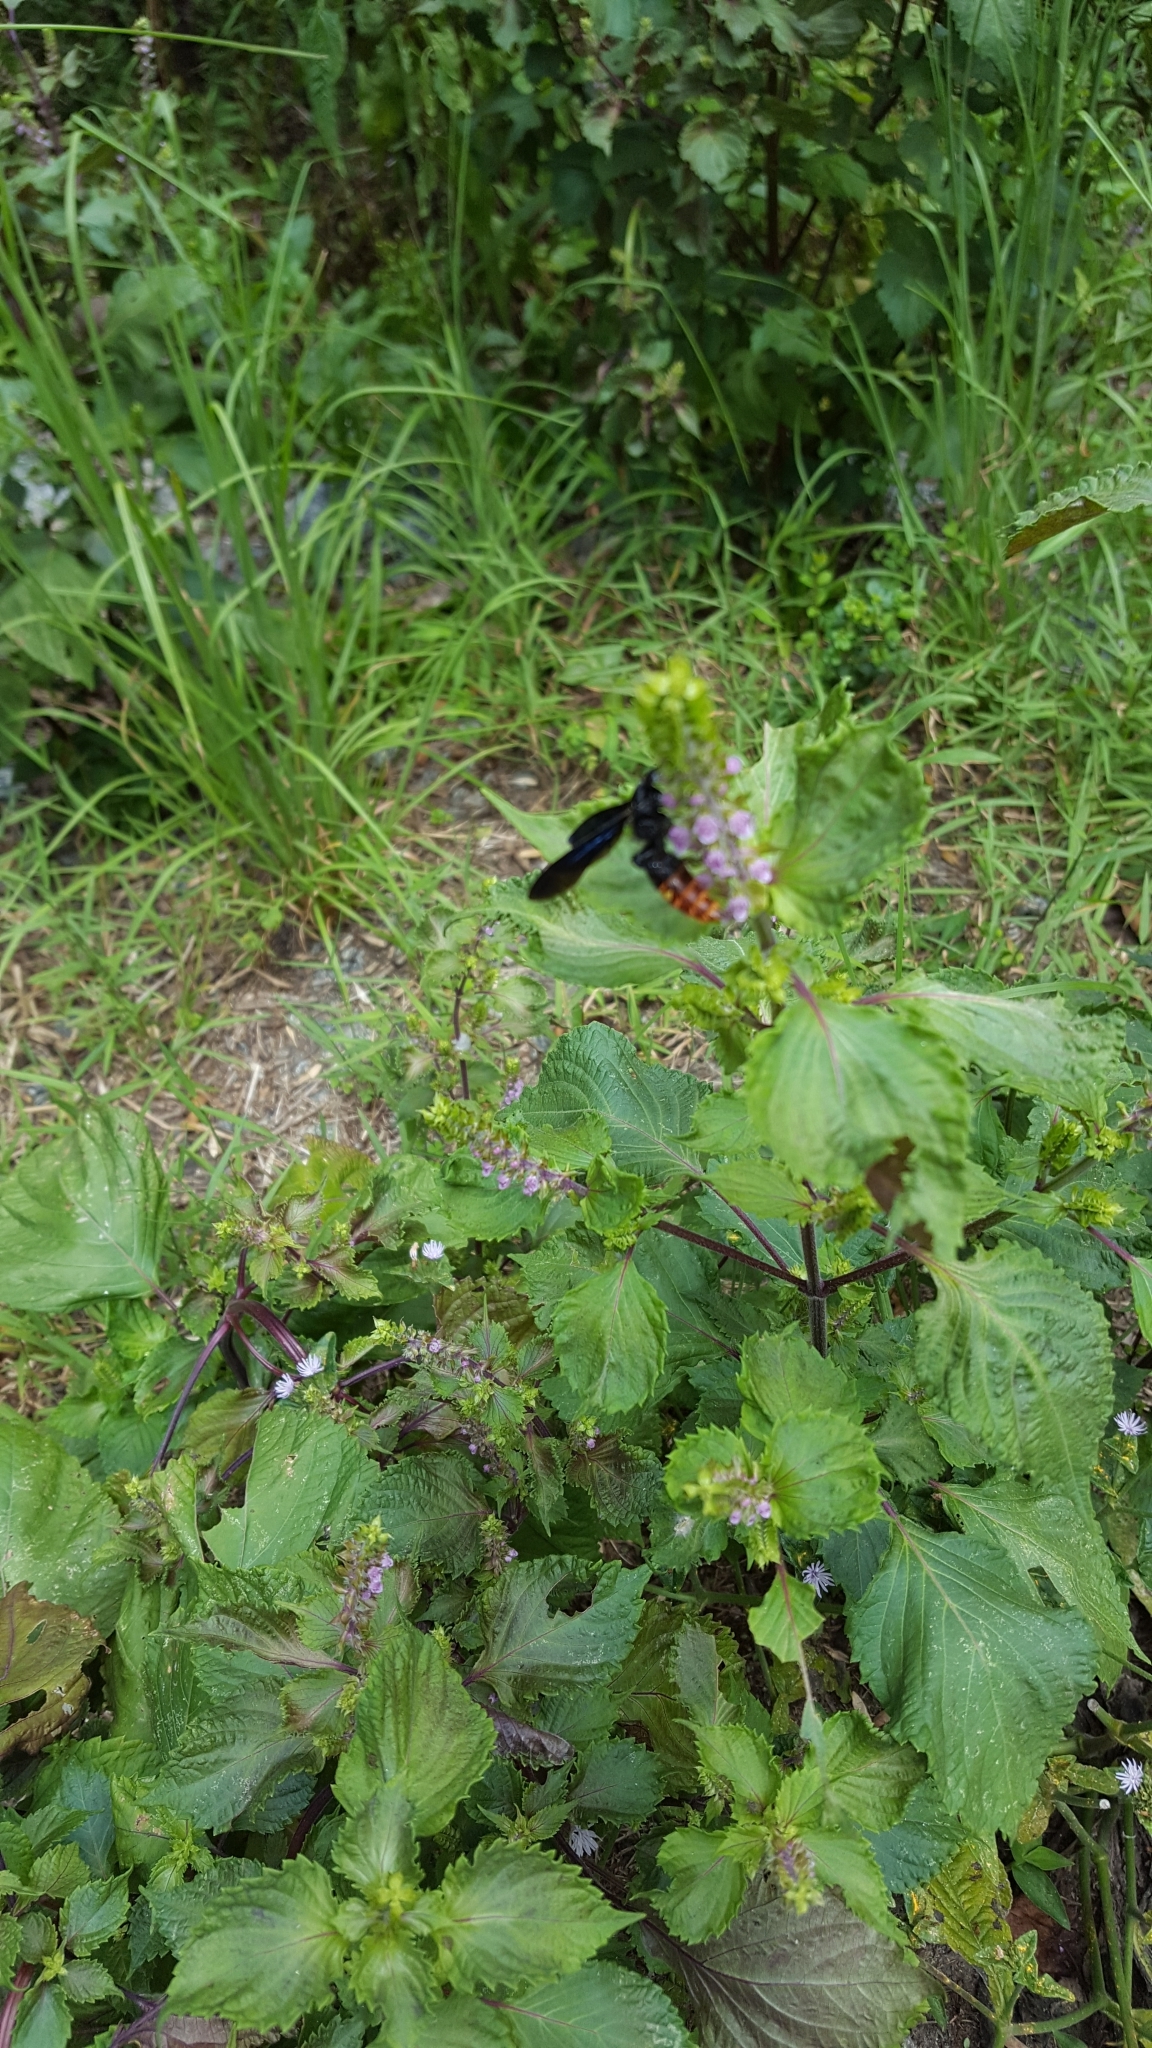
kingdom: Animalia
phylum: Arthropoda
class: Insecta
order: Hymenoptera
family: Scoliidae
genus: Scolia
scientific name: Scolia dubia
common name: Blue-winged scoliid wasp
